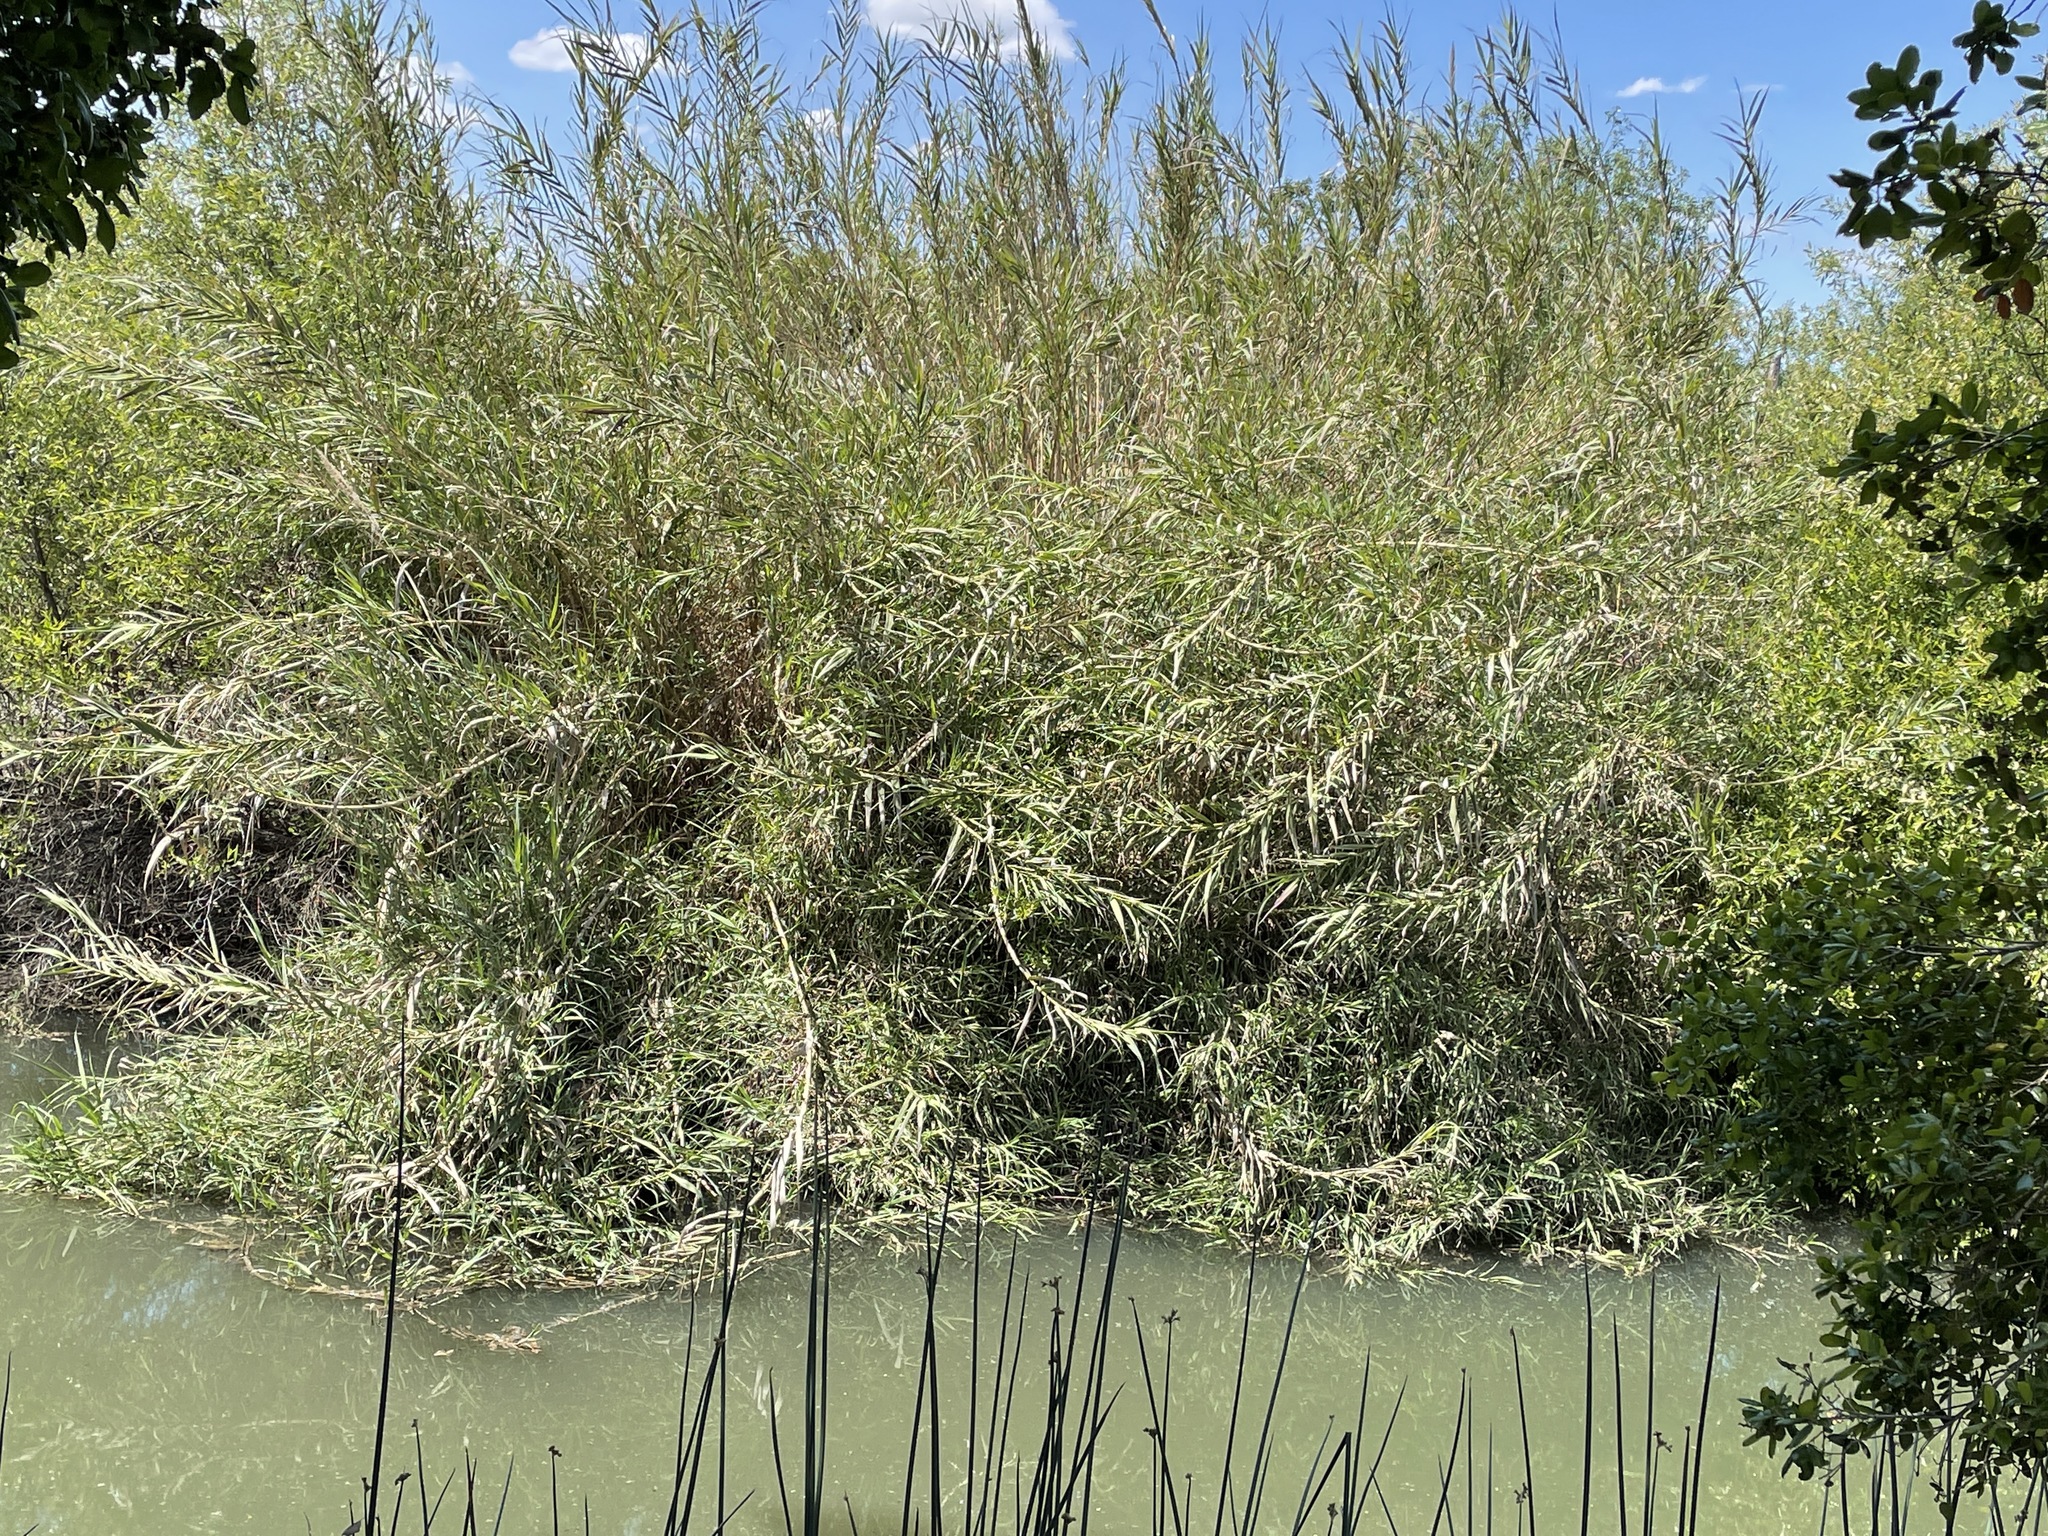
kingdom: Plantae
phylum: Tracheophyta
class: Liliopsida
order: Poales
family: Poaceae
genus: Arundo
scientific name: Arundo donax
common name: Giant reed
